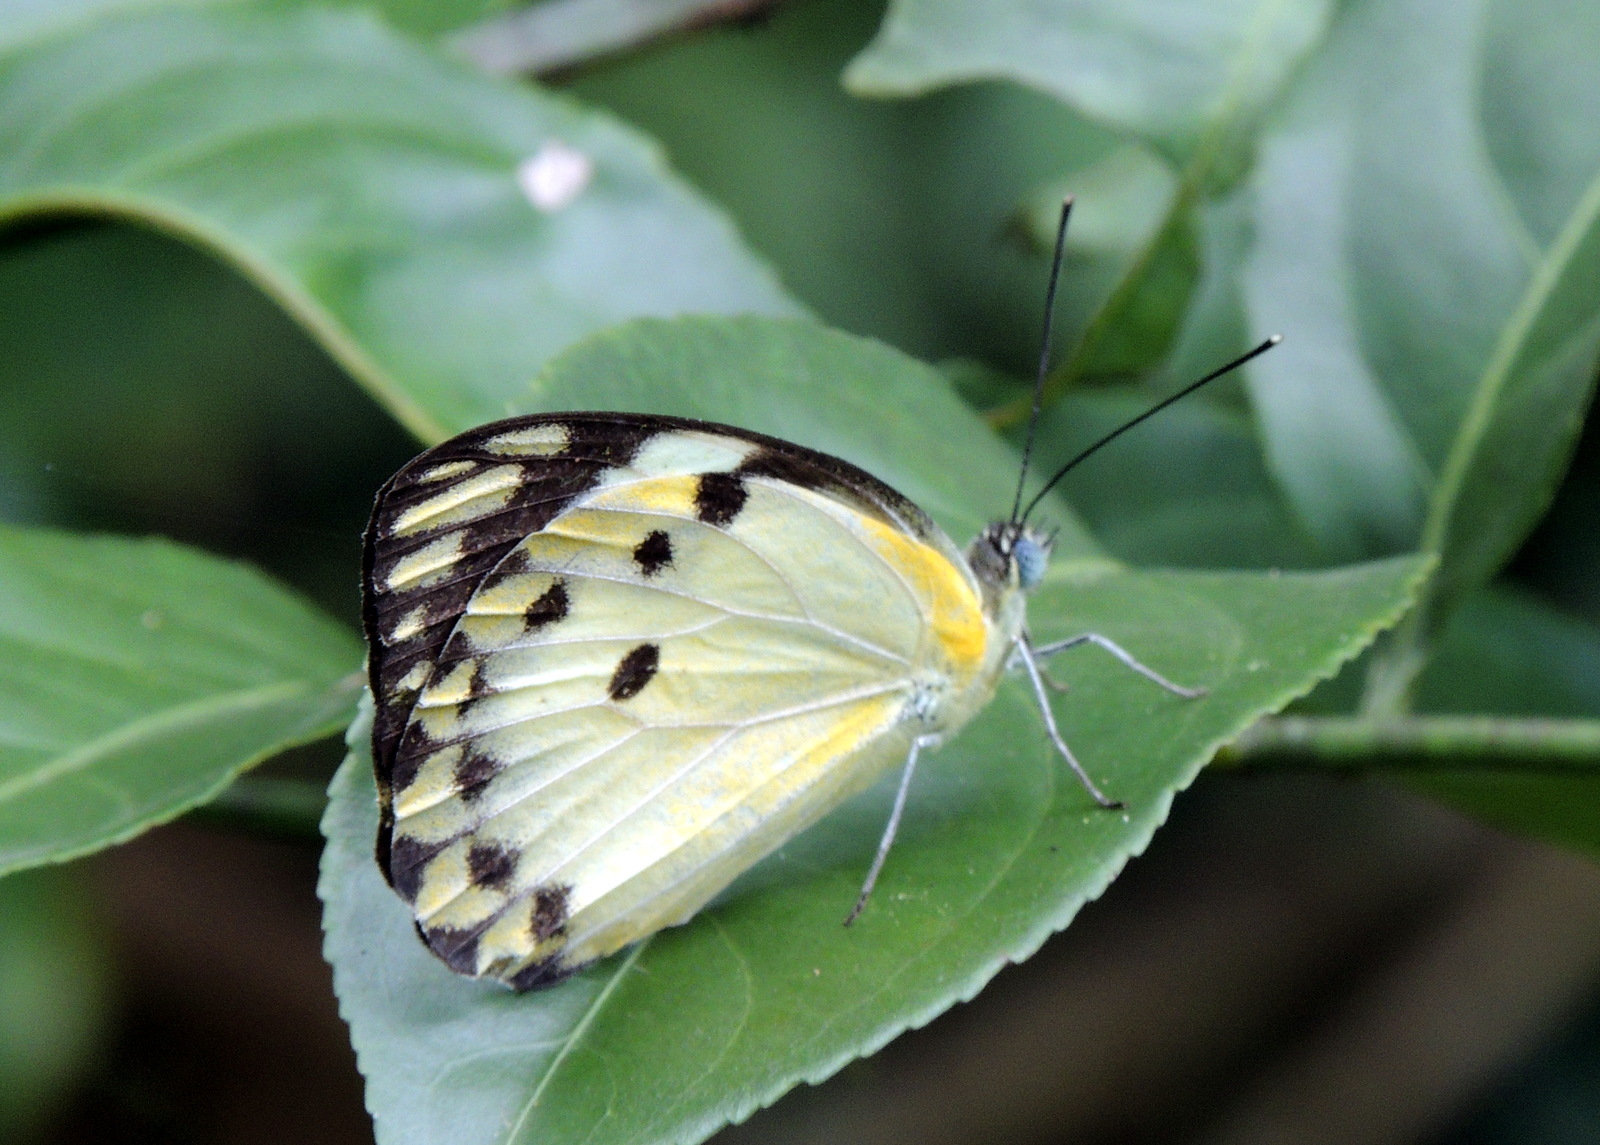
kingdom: Animalia
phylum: Arthropoda
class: Insecta
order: Lepidoptera
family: Pieridae
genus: Belenois
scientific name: Belenois calypso
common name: Calypso caper white
